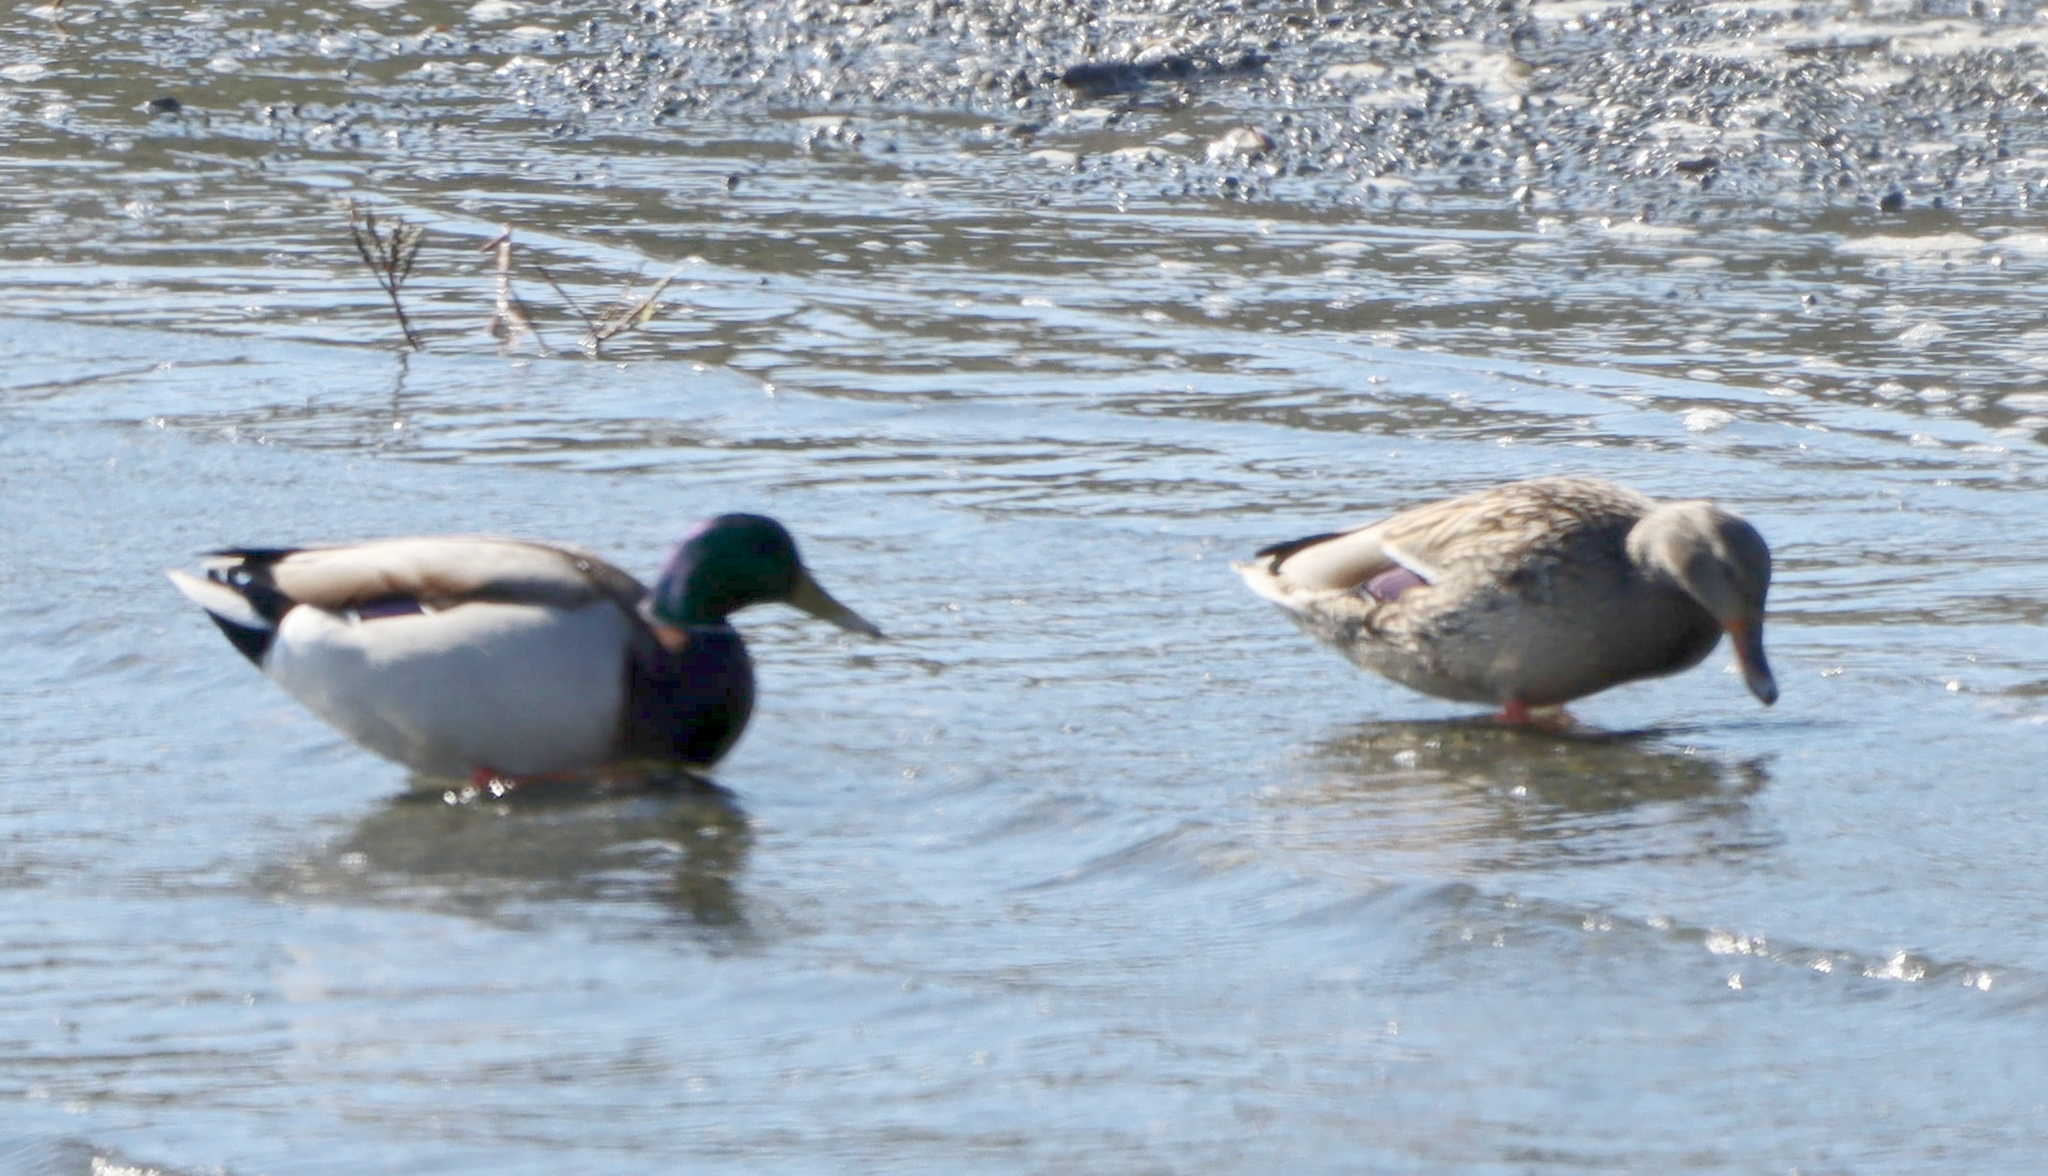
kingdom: Animalia
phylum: Chordata
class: Aves
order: Anseriformes
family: Anatidae
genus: Anas
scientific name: Anas platyrhynchos
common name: Mallard
